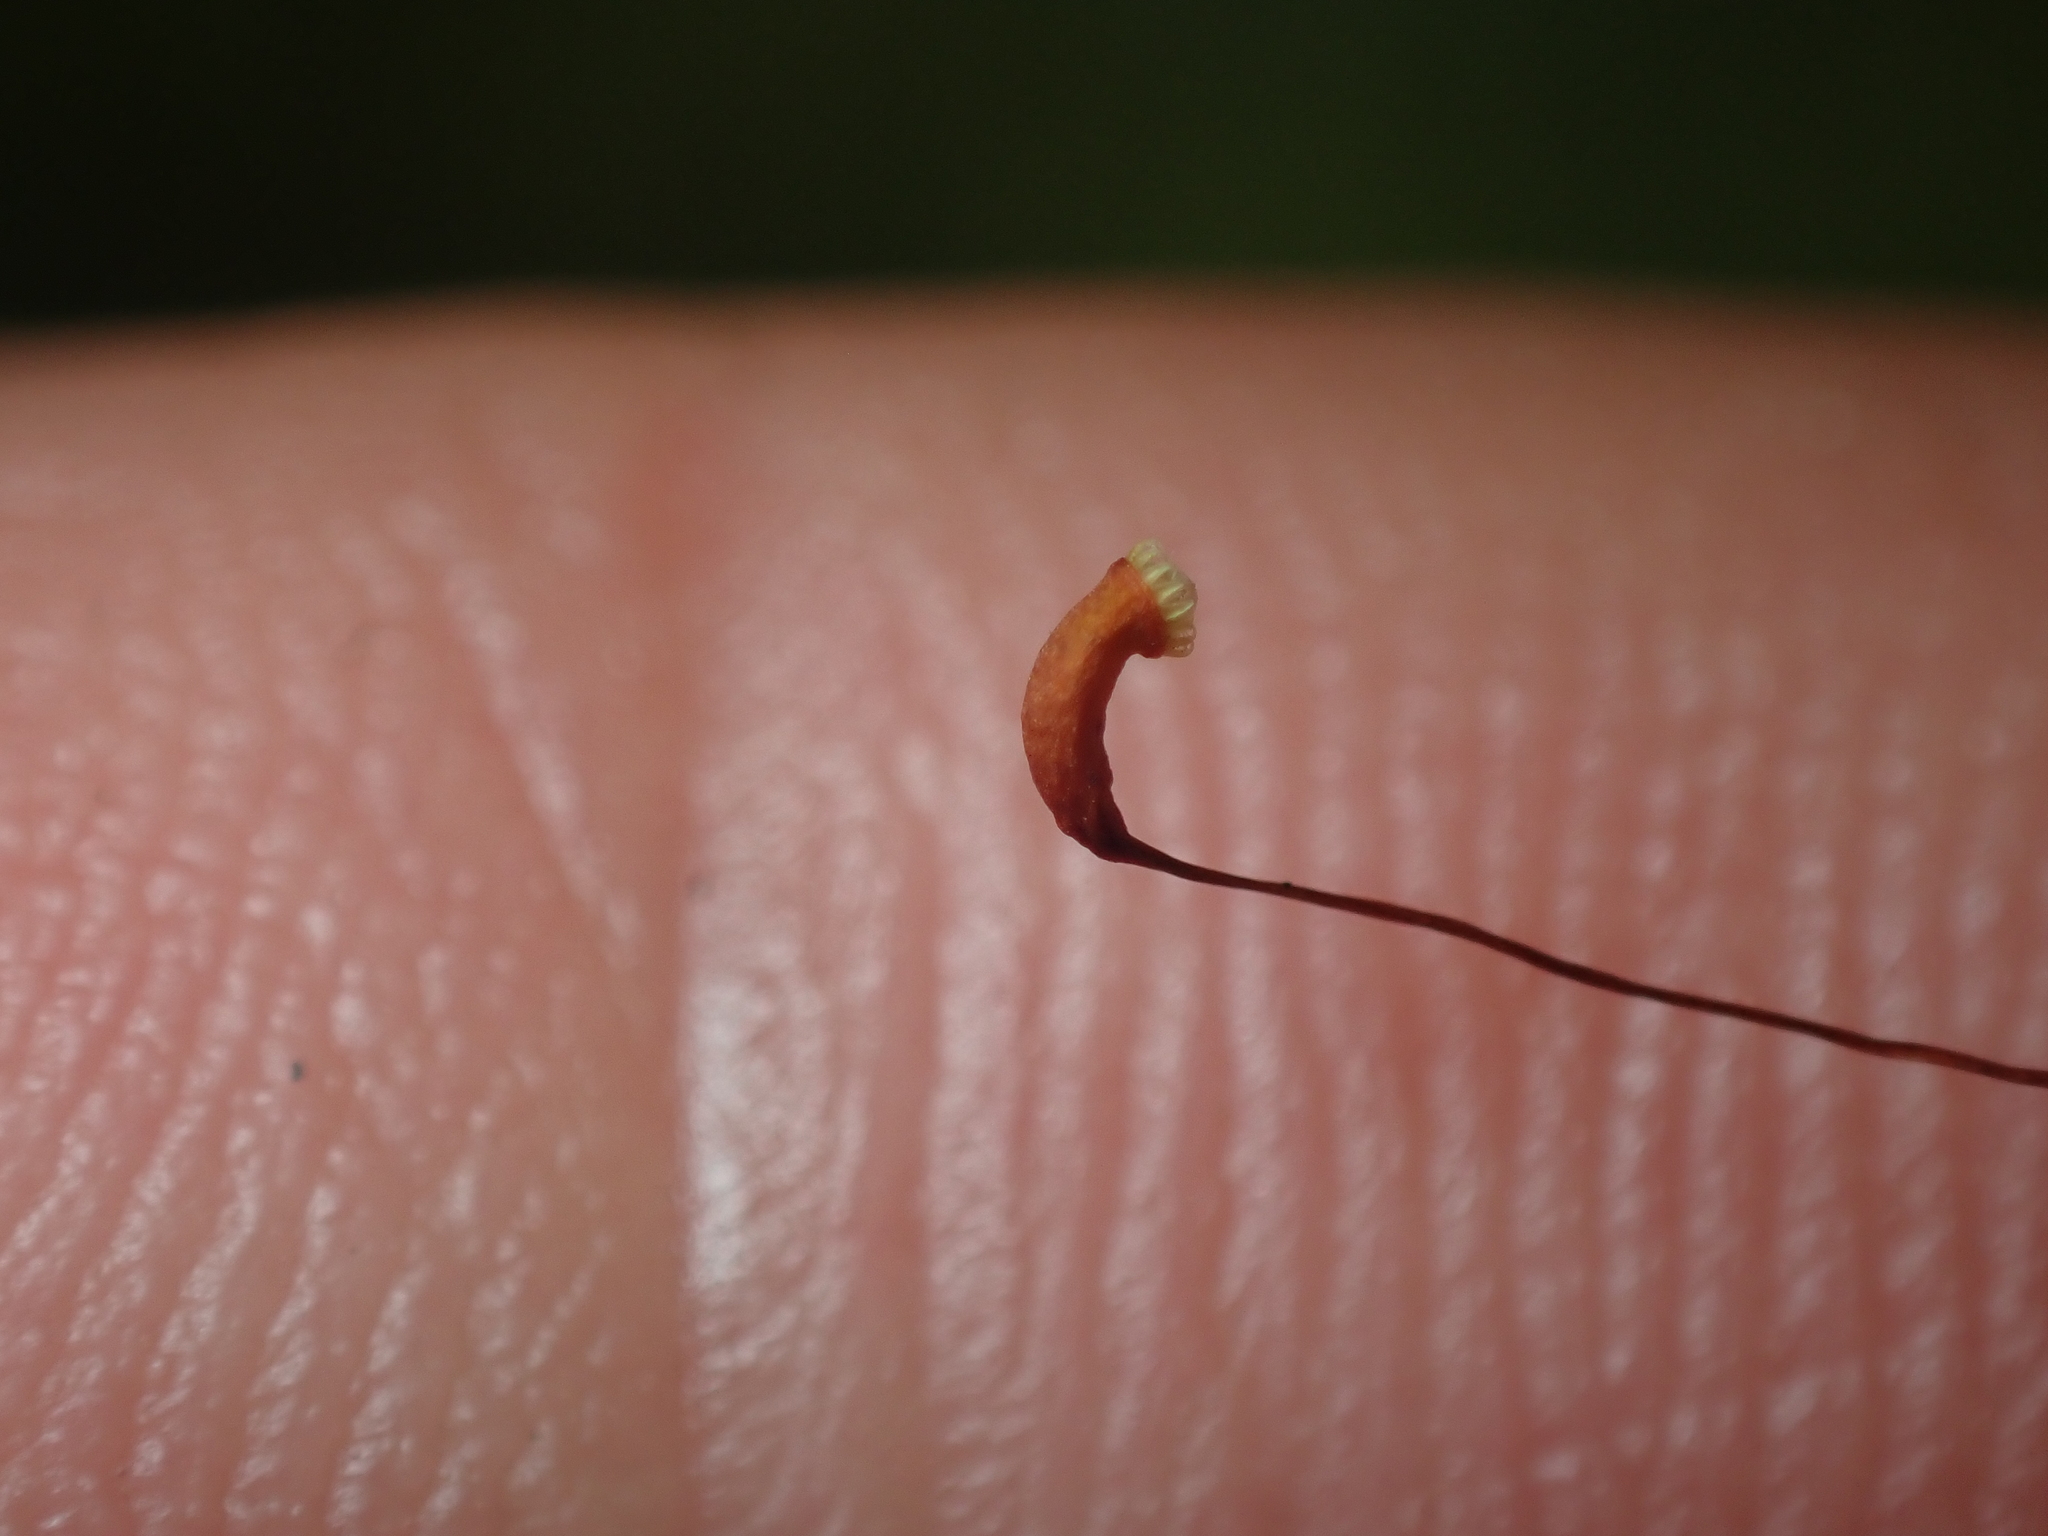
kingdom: Plantae
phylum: Bryophyta
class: Bryopsida
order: Hypnales
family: Acrocladiaceae
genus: Acrocladium
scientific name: Acrocladium chlamydophyllum
